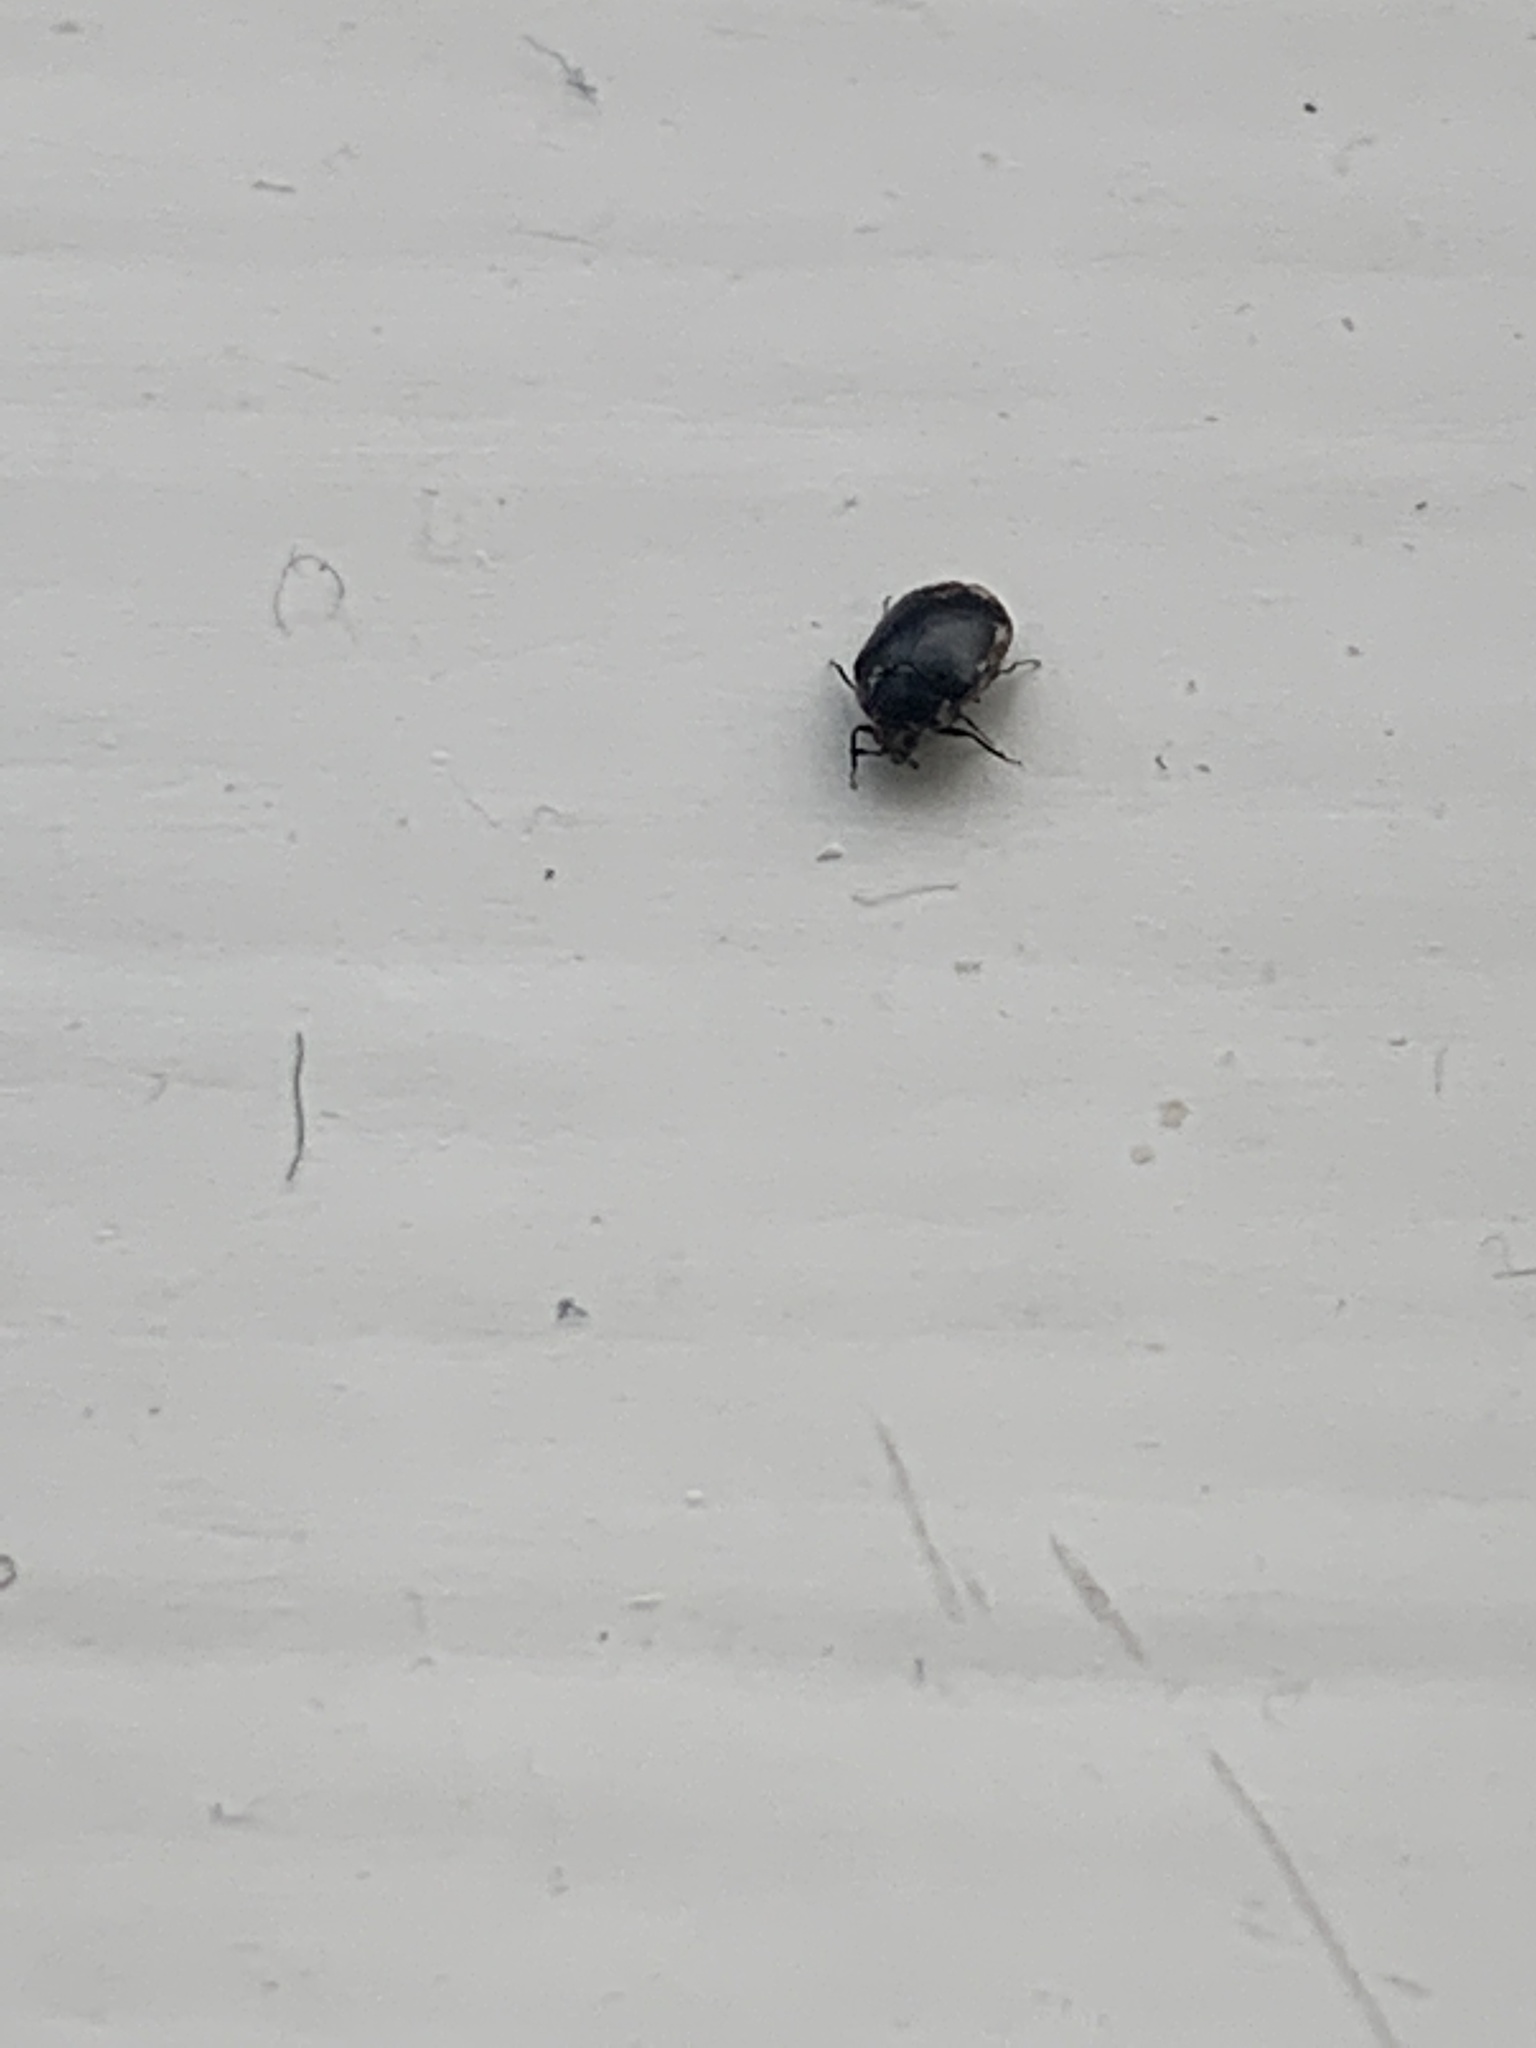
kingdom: Animalia
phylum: Arthropoda
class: Insecta
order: Coleoptera
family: Dermestidae
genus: Anthrenus
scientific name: Anthrenus verbasci
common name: Varied carpet beetle
